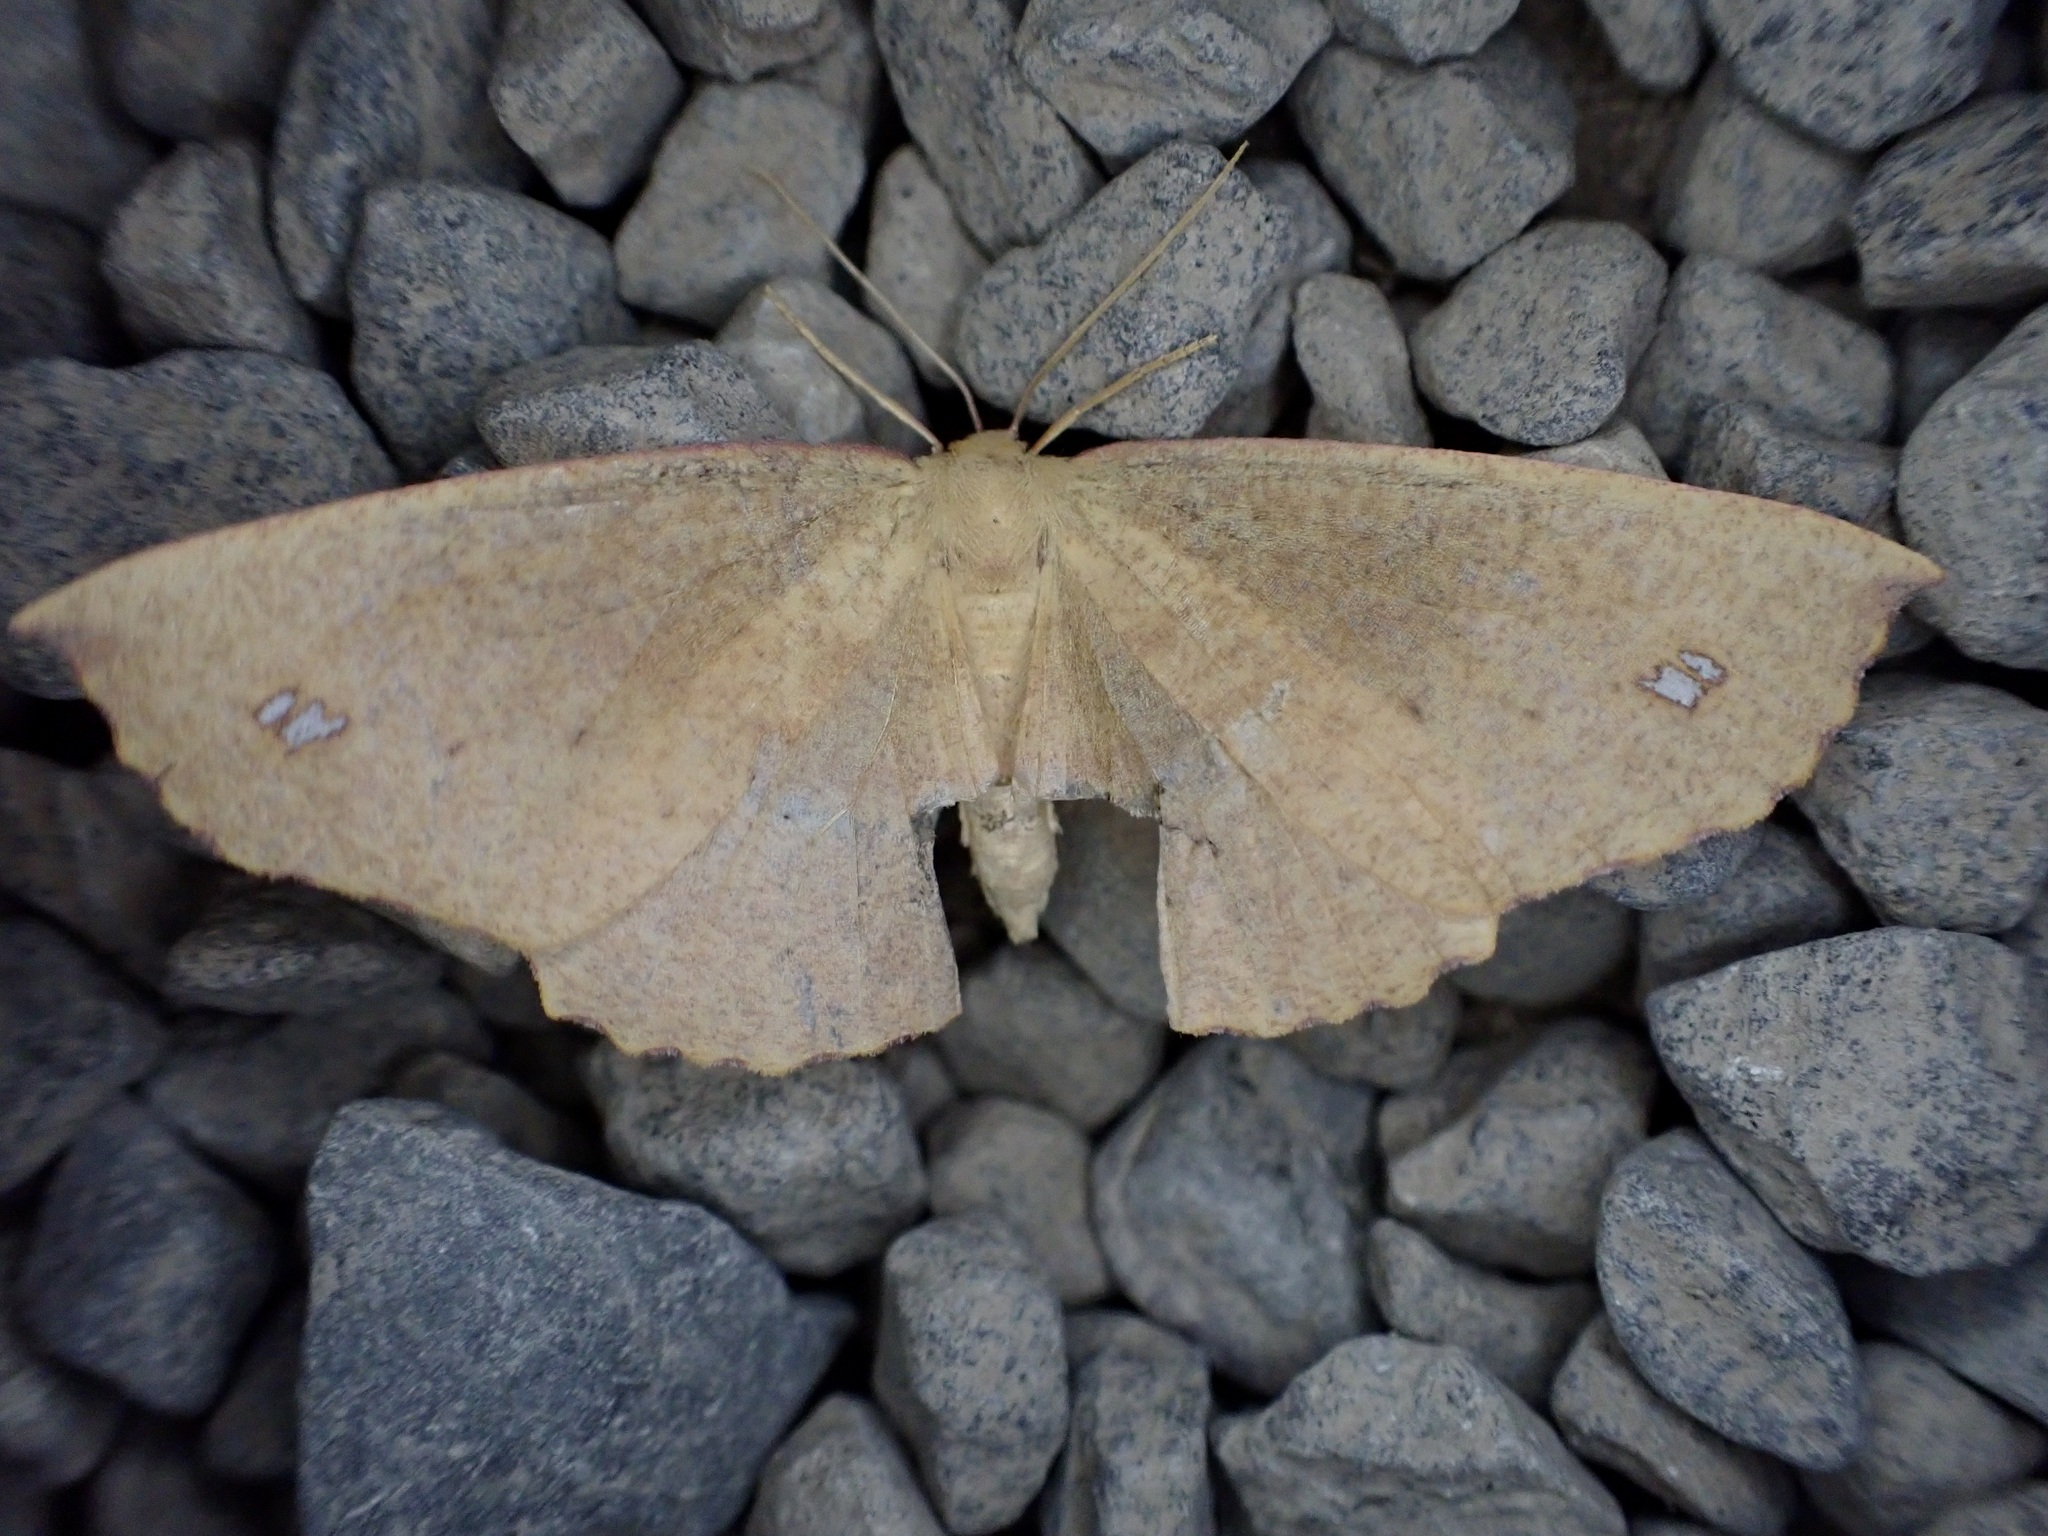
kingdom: Animalia
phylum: Arthropoda
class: Insecta
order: Lepidoptera
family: Geometridae
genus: Xyridacma
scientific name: Xyridacma ustaria
